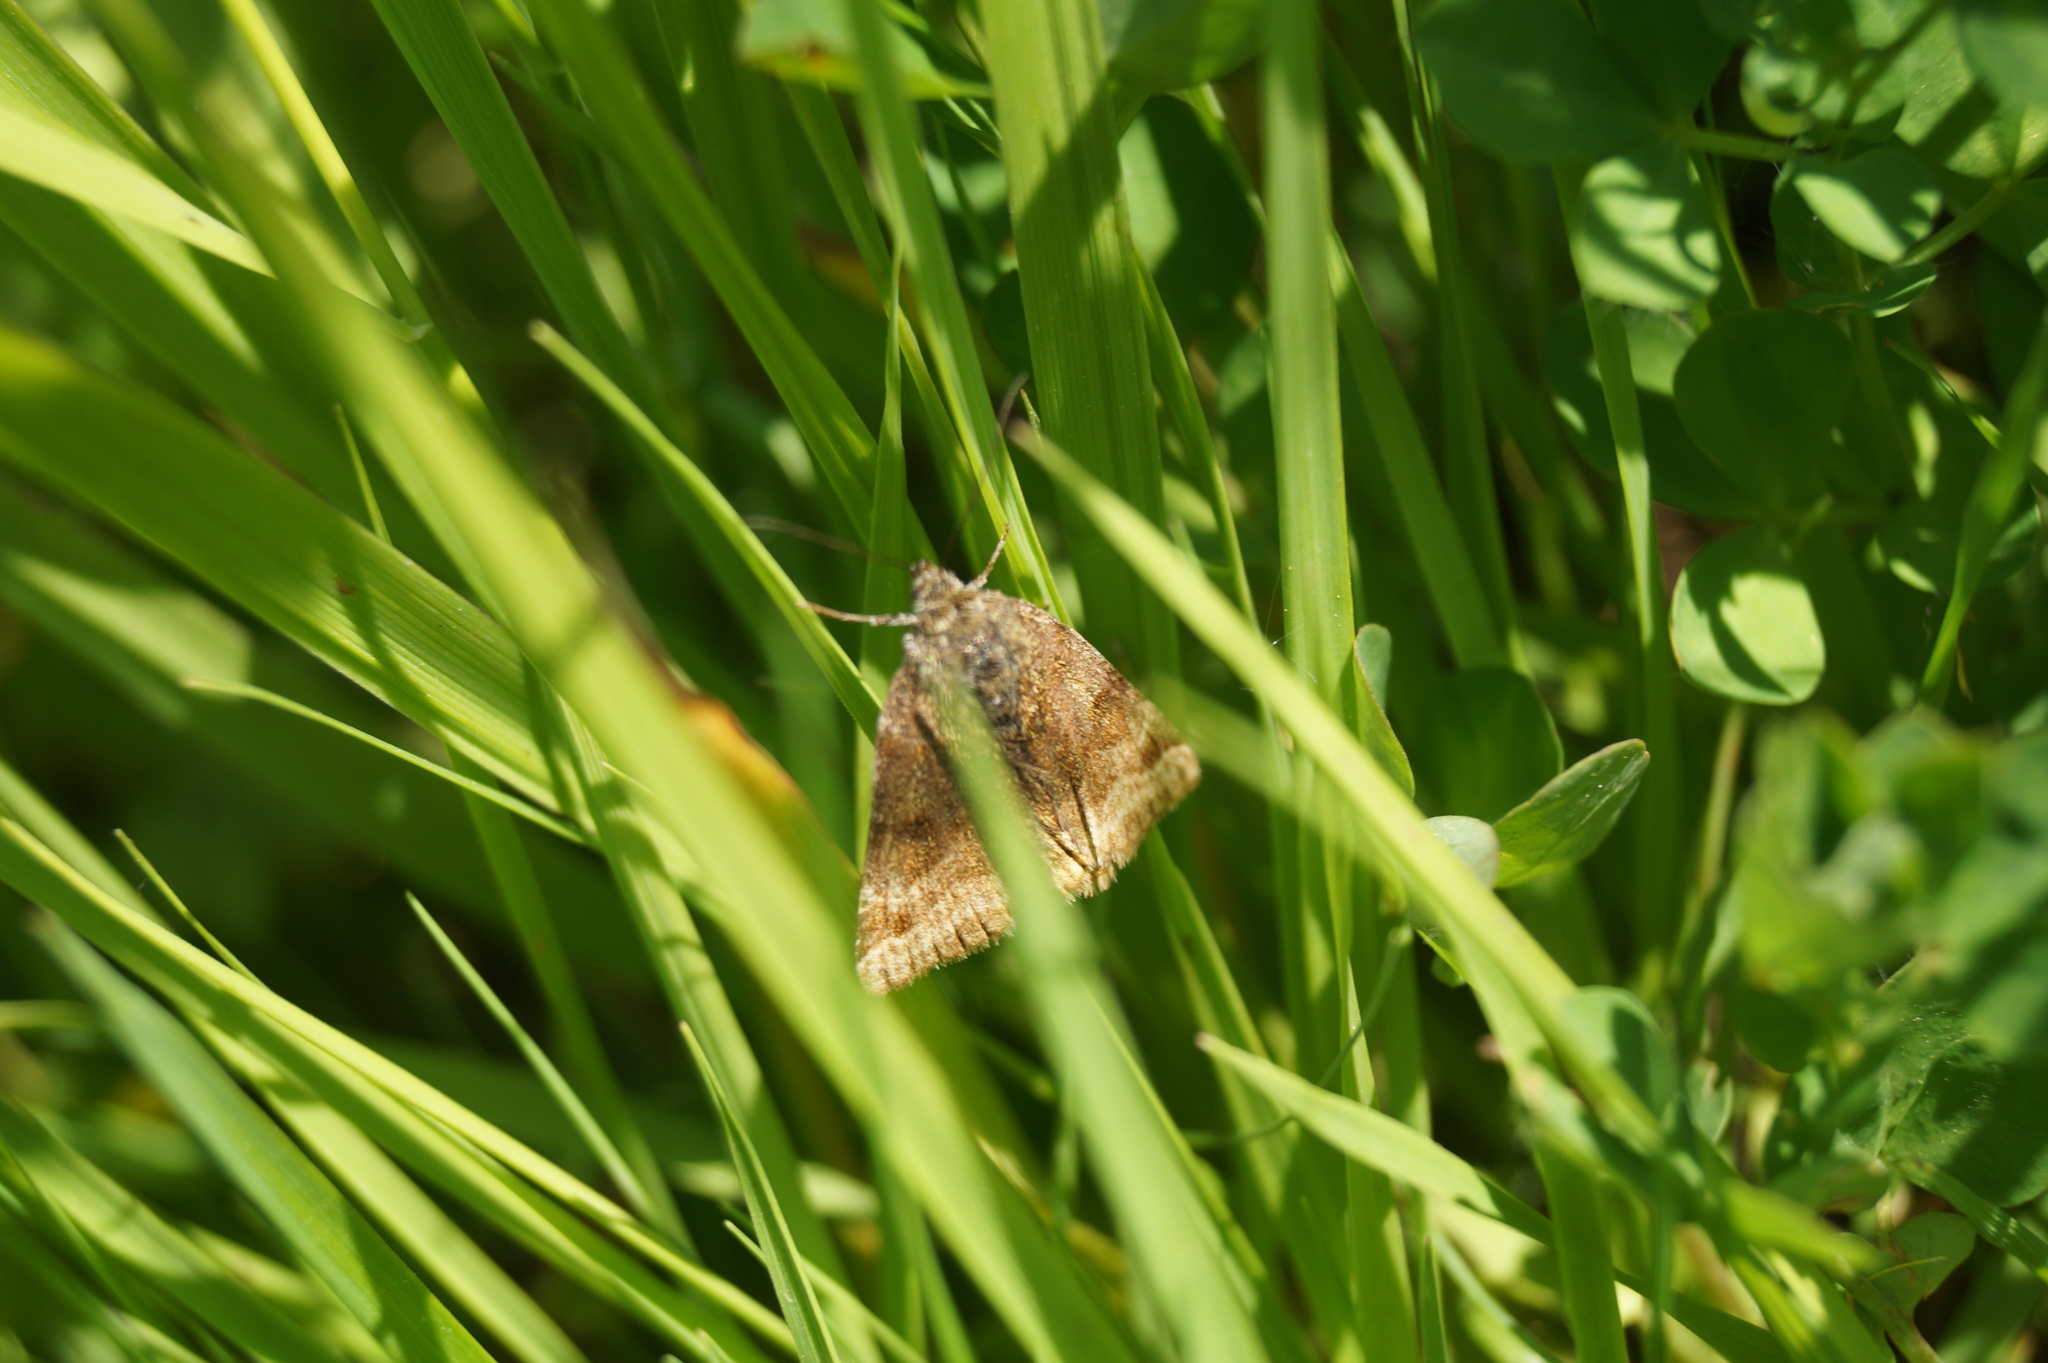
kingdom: Animalia
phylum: Arthropoda
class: Insecta
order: Lepidoptera
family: Erebidae
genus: Euclidia
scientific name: Euclidia glyphica
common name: Burnet companion
